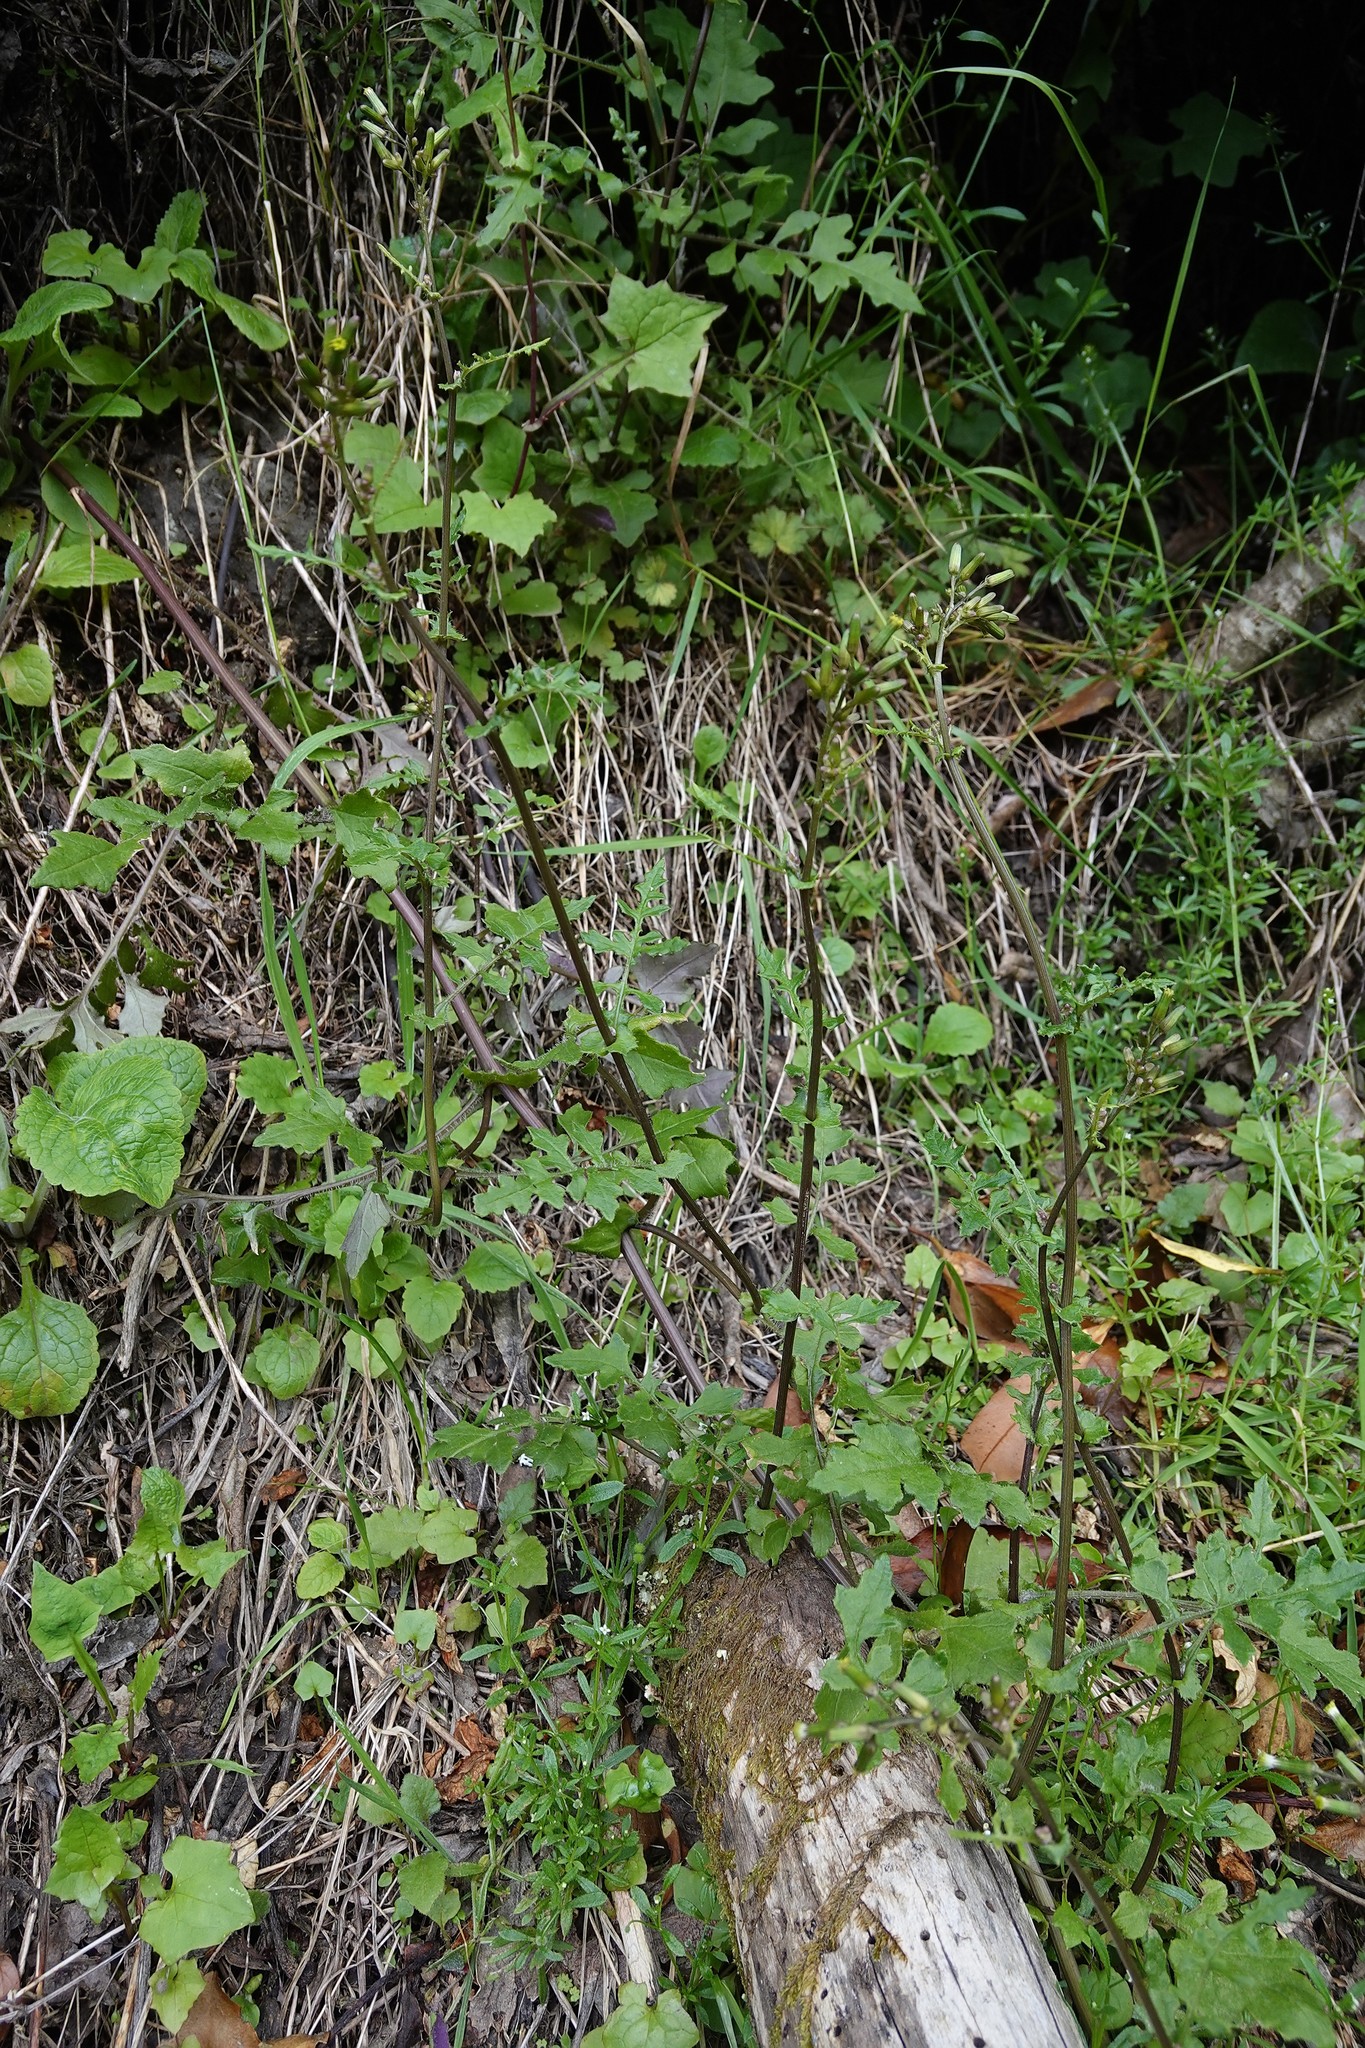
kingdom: Plantae
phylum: Tracheophyta
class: Magnoliopsida
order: Asterales
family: Asteraceae
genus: Senecio
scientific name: Senecio wairauensis
